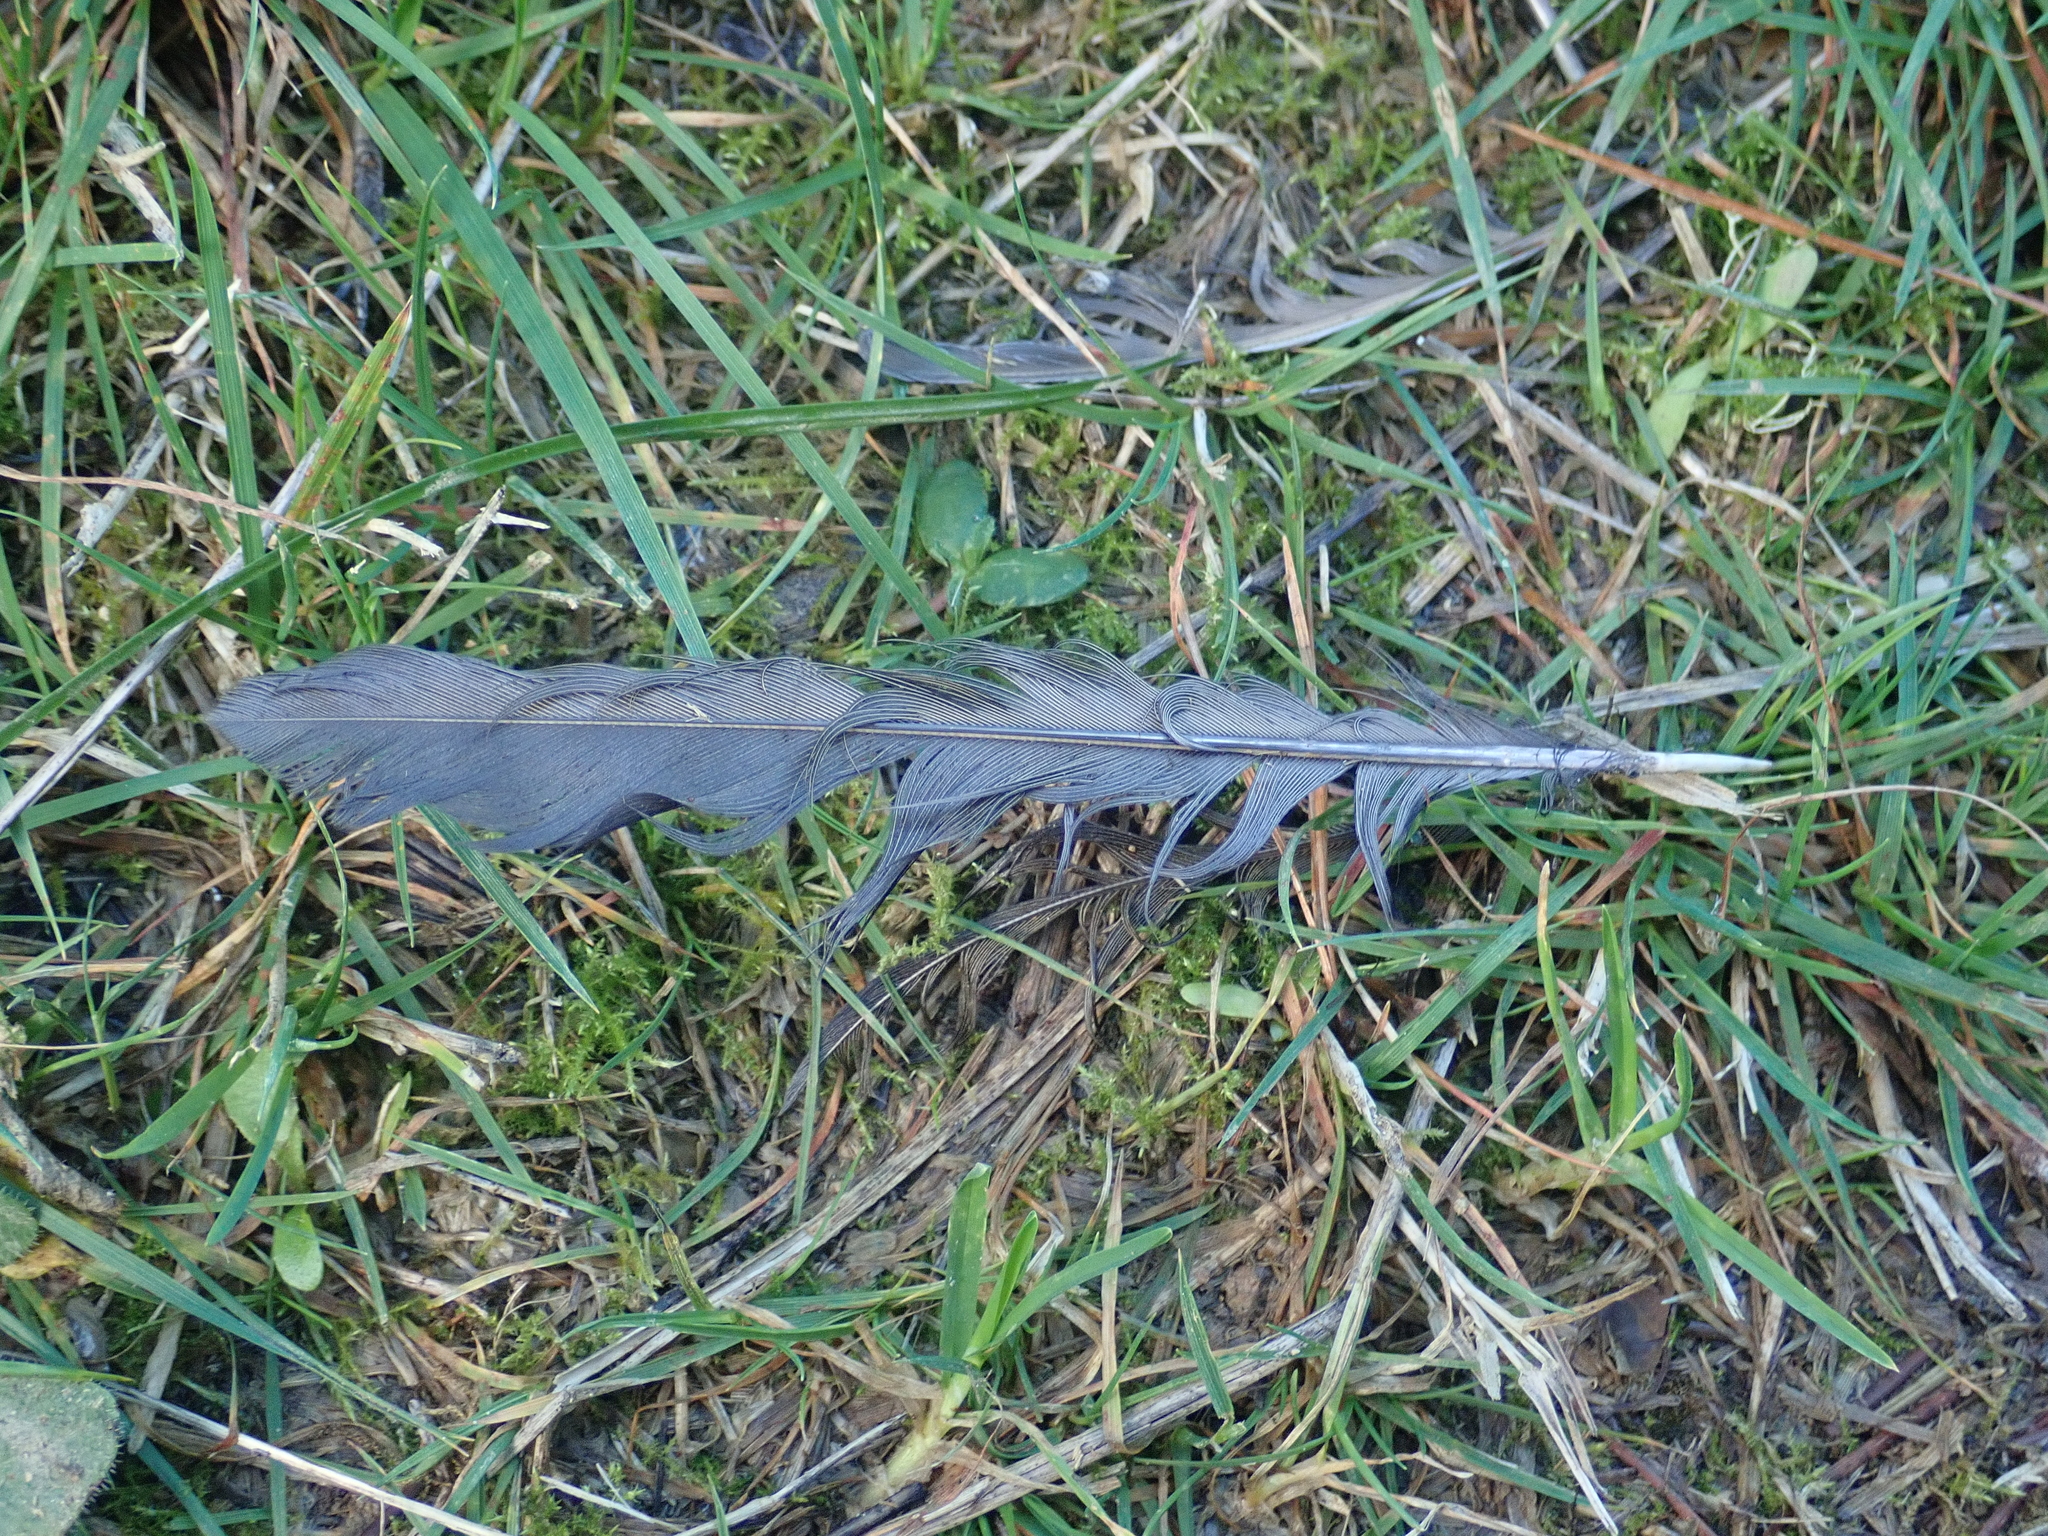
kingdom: Animalia
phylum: Chordata
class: Aves
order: Passeriformes
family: Turdidae
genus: Turdus
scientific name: Turdus merula
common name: Common blackbird
